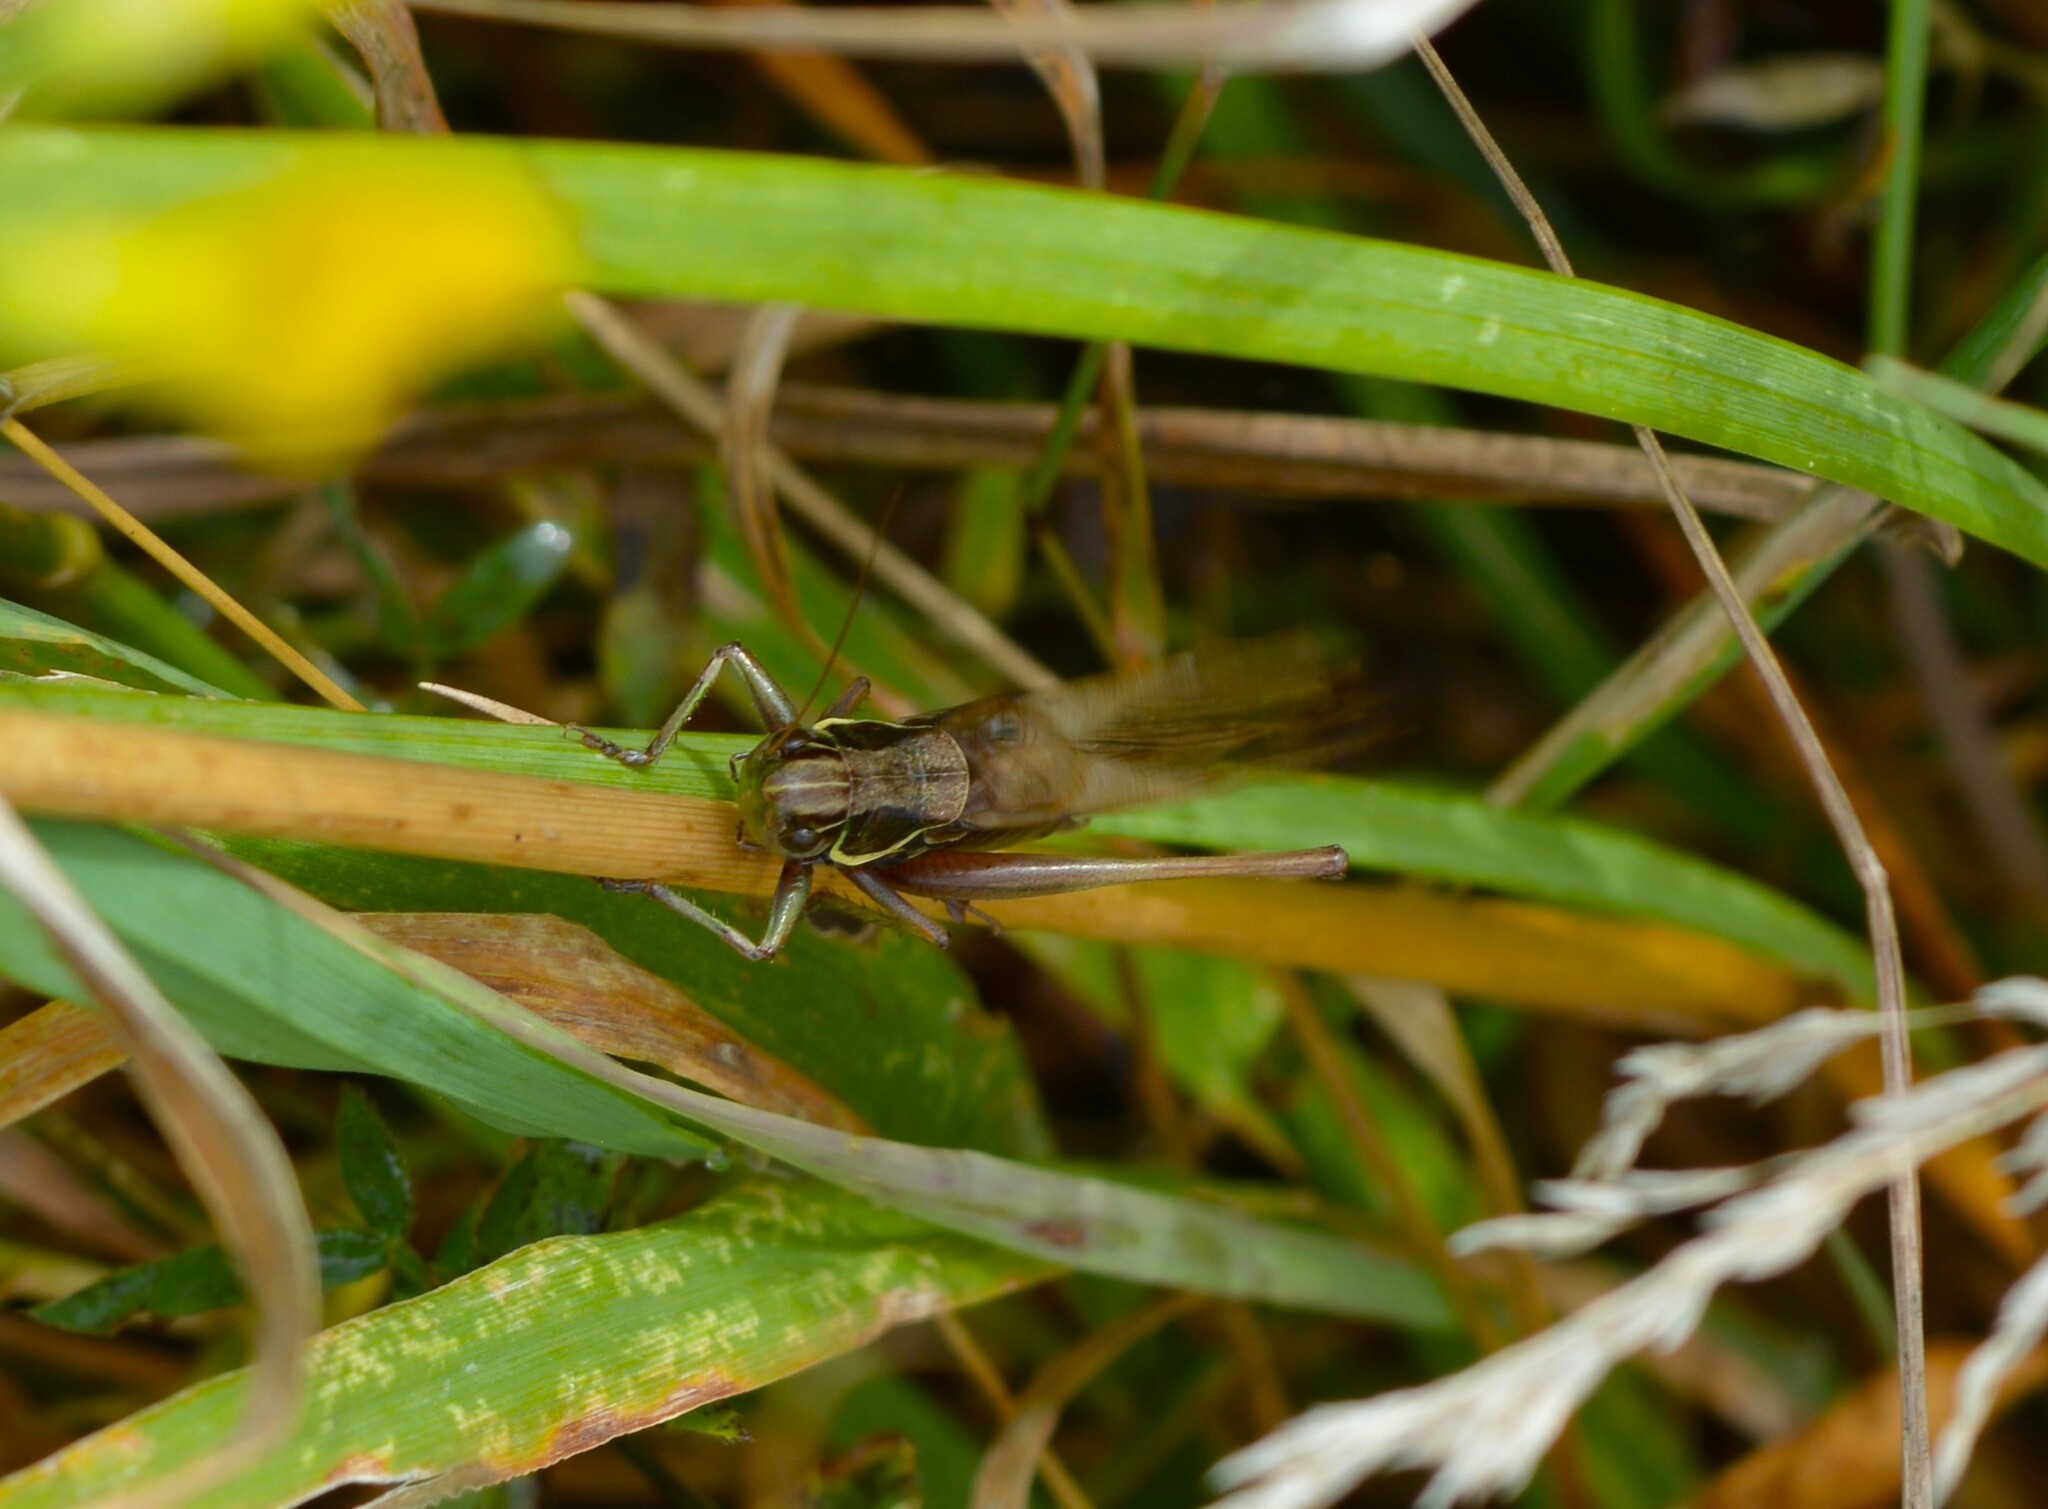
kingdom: Animalia
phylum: Arthropoda
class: Insecta
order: Orthoptera
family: Tettigoniidae
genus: Roeseliana
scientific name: Roeseliana roeselii
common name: Roesel's bush cricket
